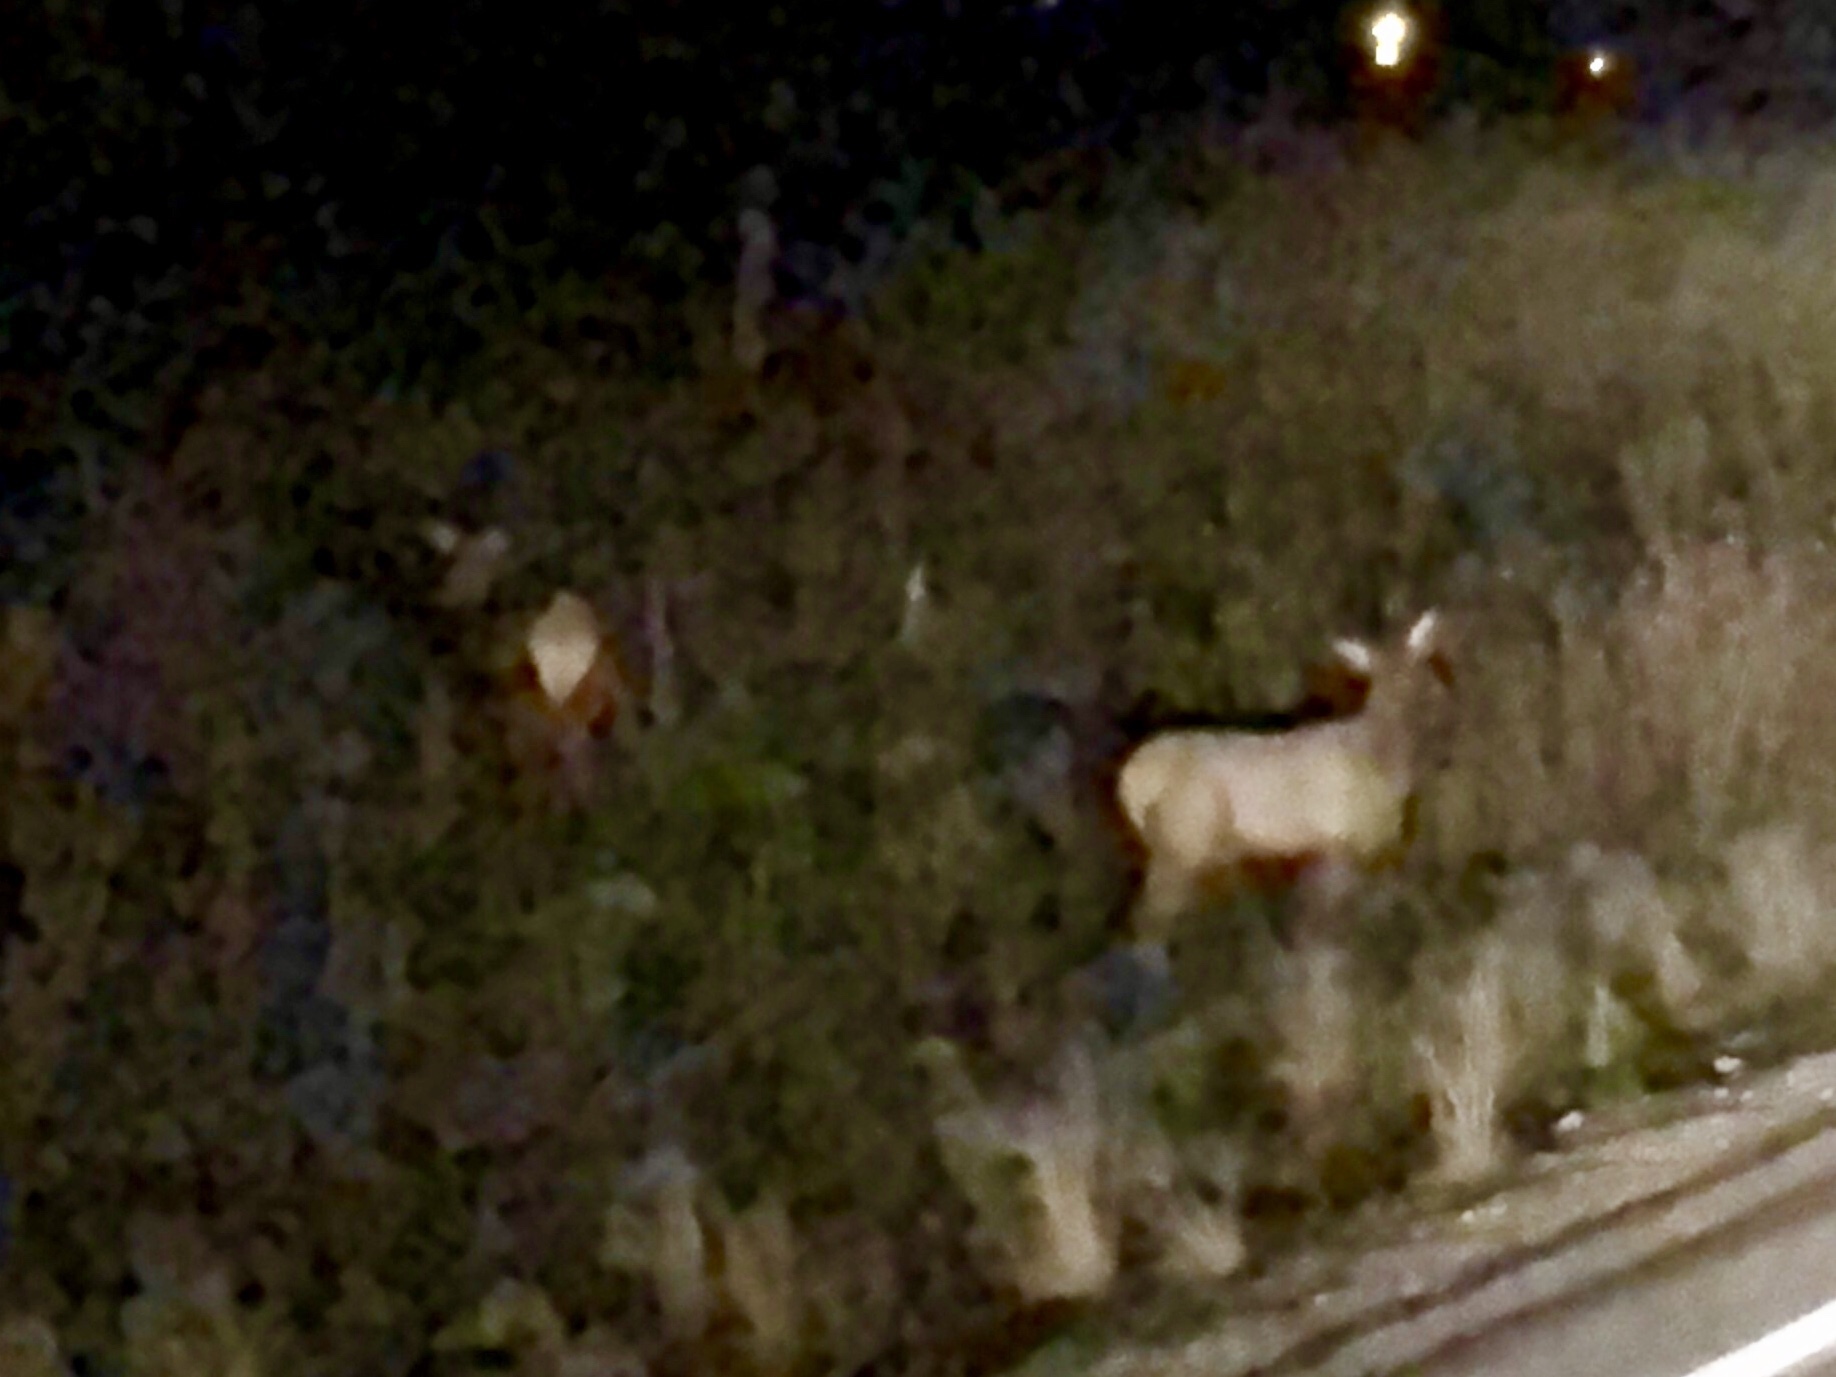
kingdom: Animalia
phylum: Chordata
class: Mammalia
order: Artiodactyla
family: Cervidae
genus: Cervus
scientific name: Cervus elaphus
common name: Red deer
